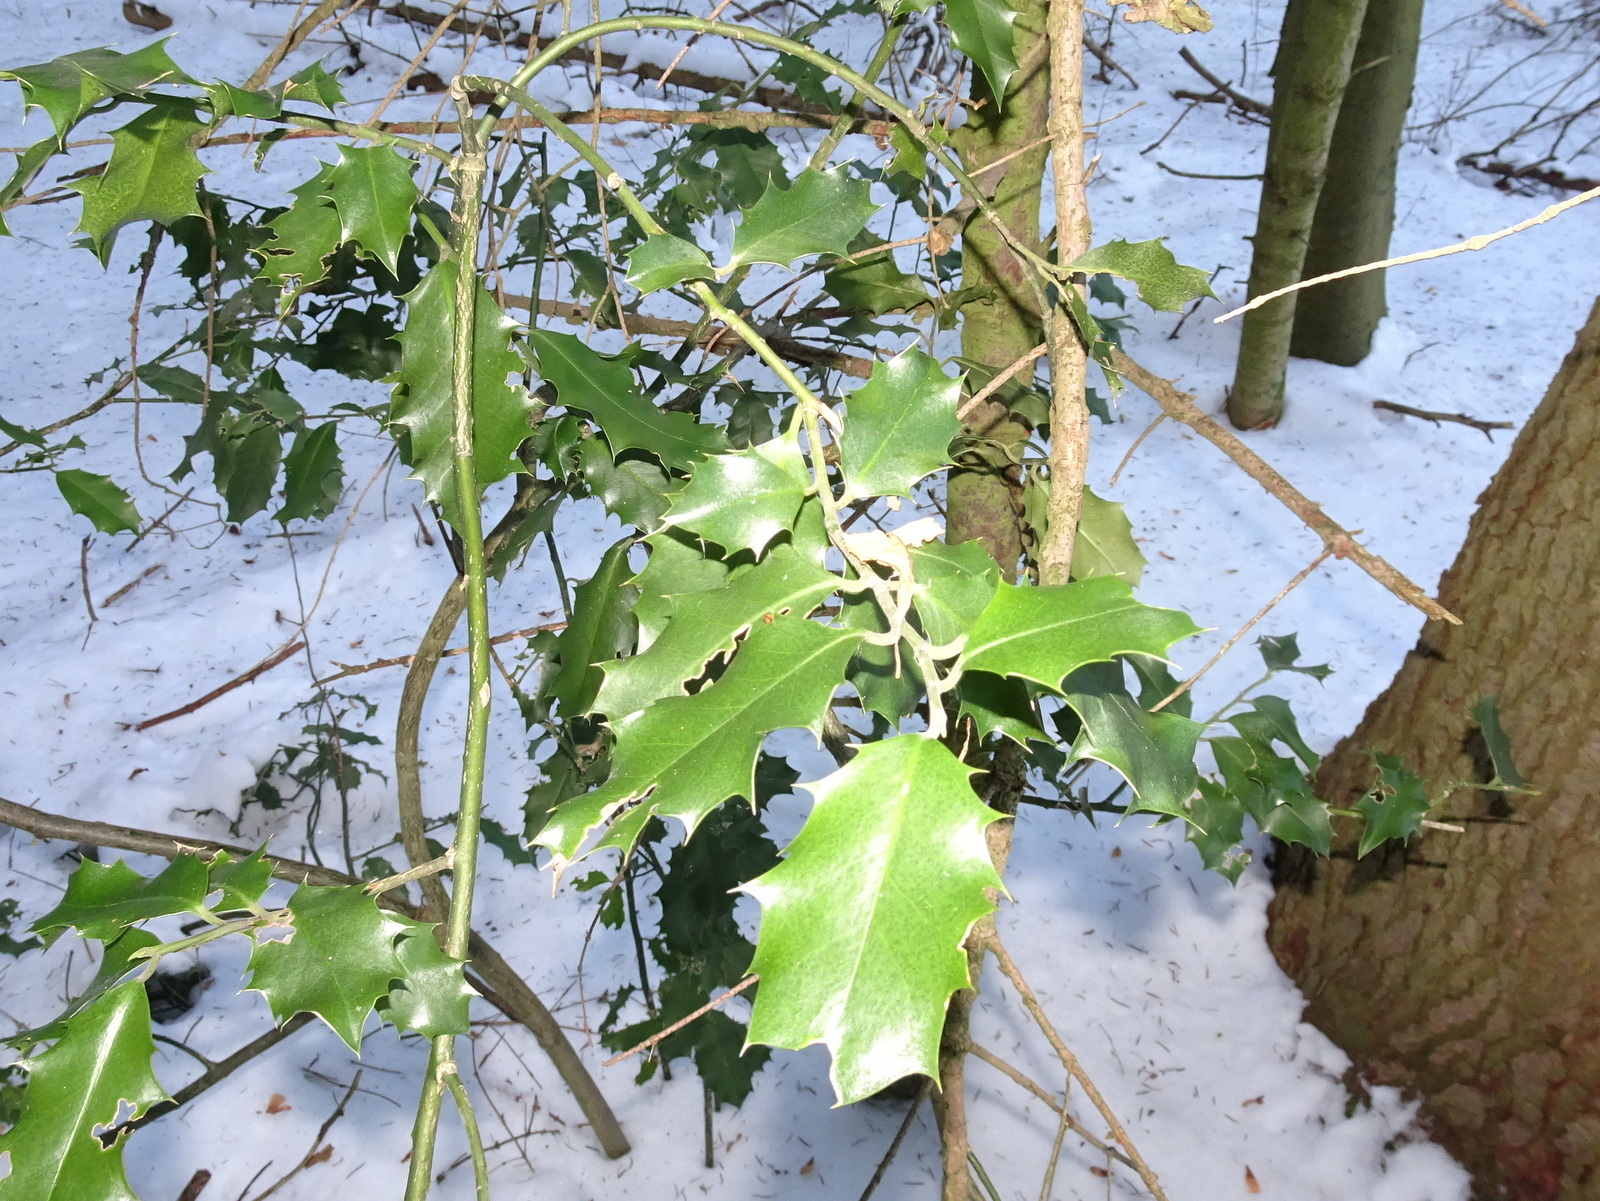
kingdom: Plantae
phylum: Tracheophyta
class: Magnoliopsida
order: Aquifoliales
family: Aquifoliaceae
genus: Ilex
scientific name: Ilex aquifolium
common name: English holly
